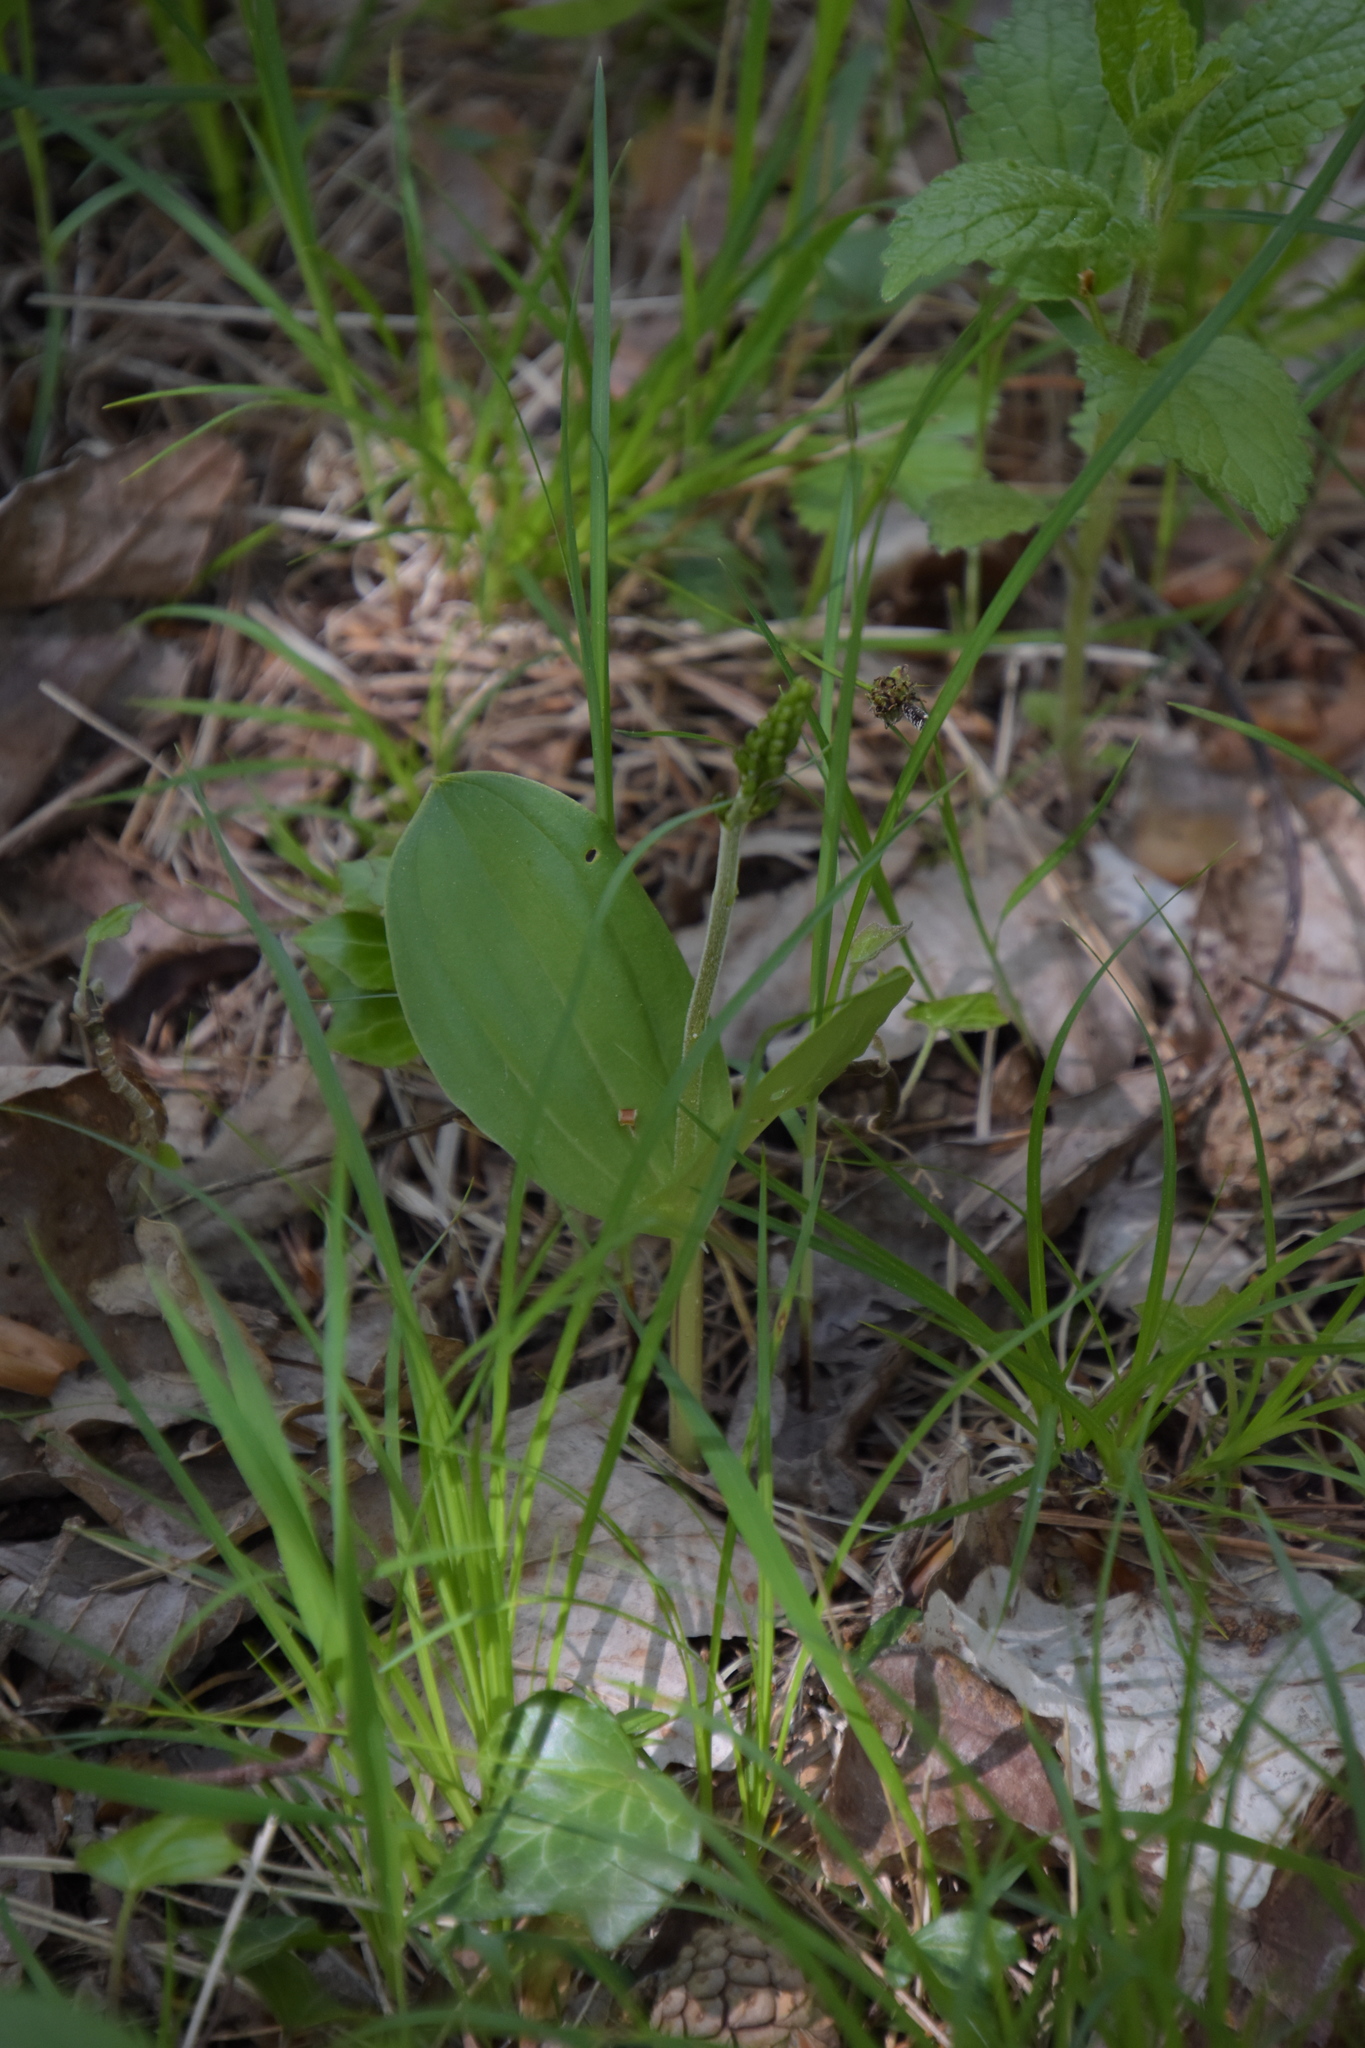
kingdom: Plantae
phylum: Tracheophyta
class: Liliopsida
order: Asparagales
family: Orchidaceae
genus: Neottia
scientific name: Neottia ovata
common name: Common twayblade
